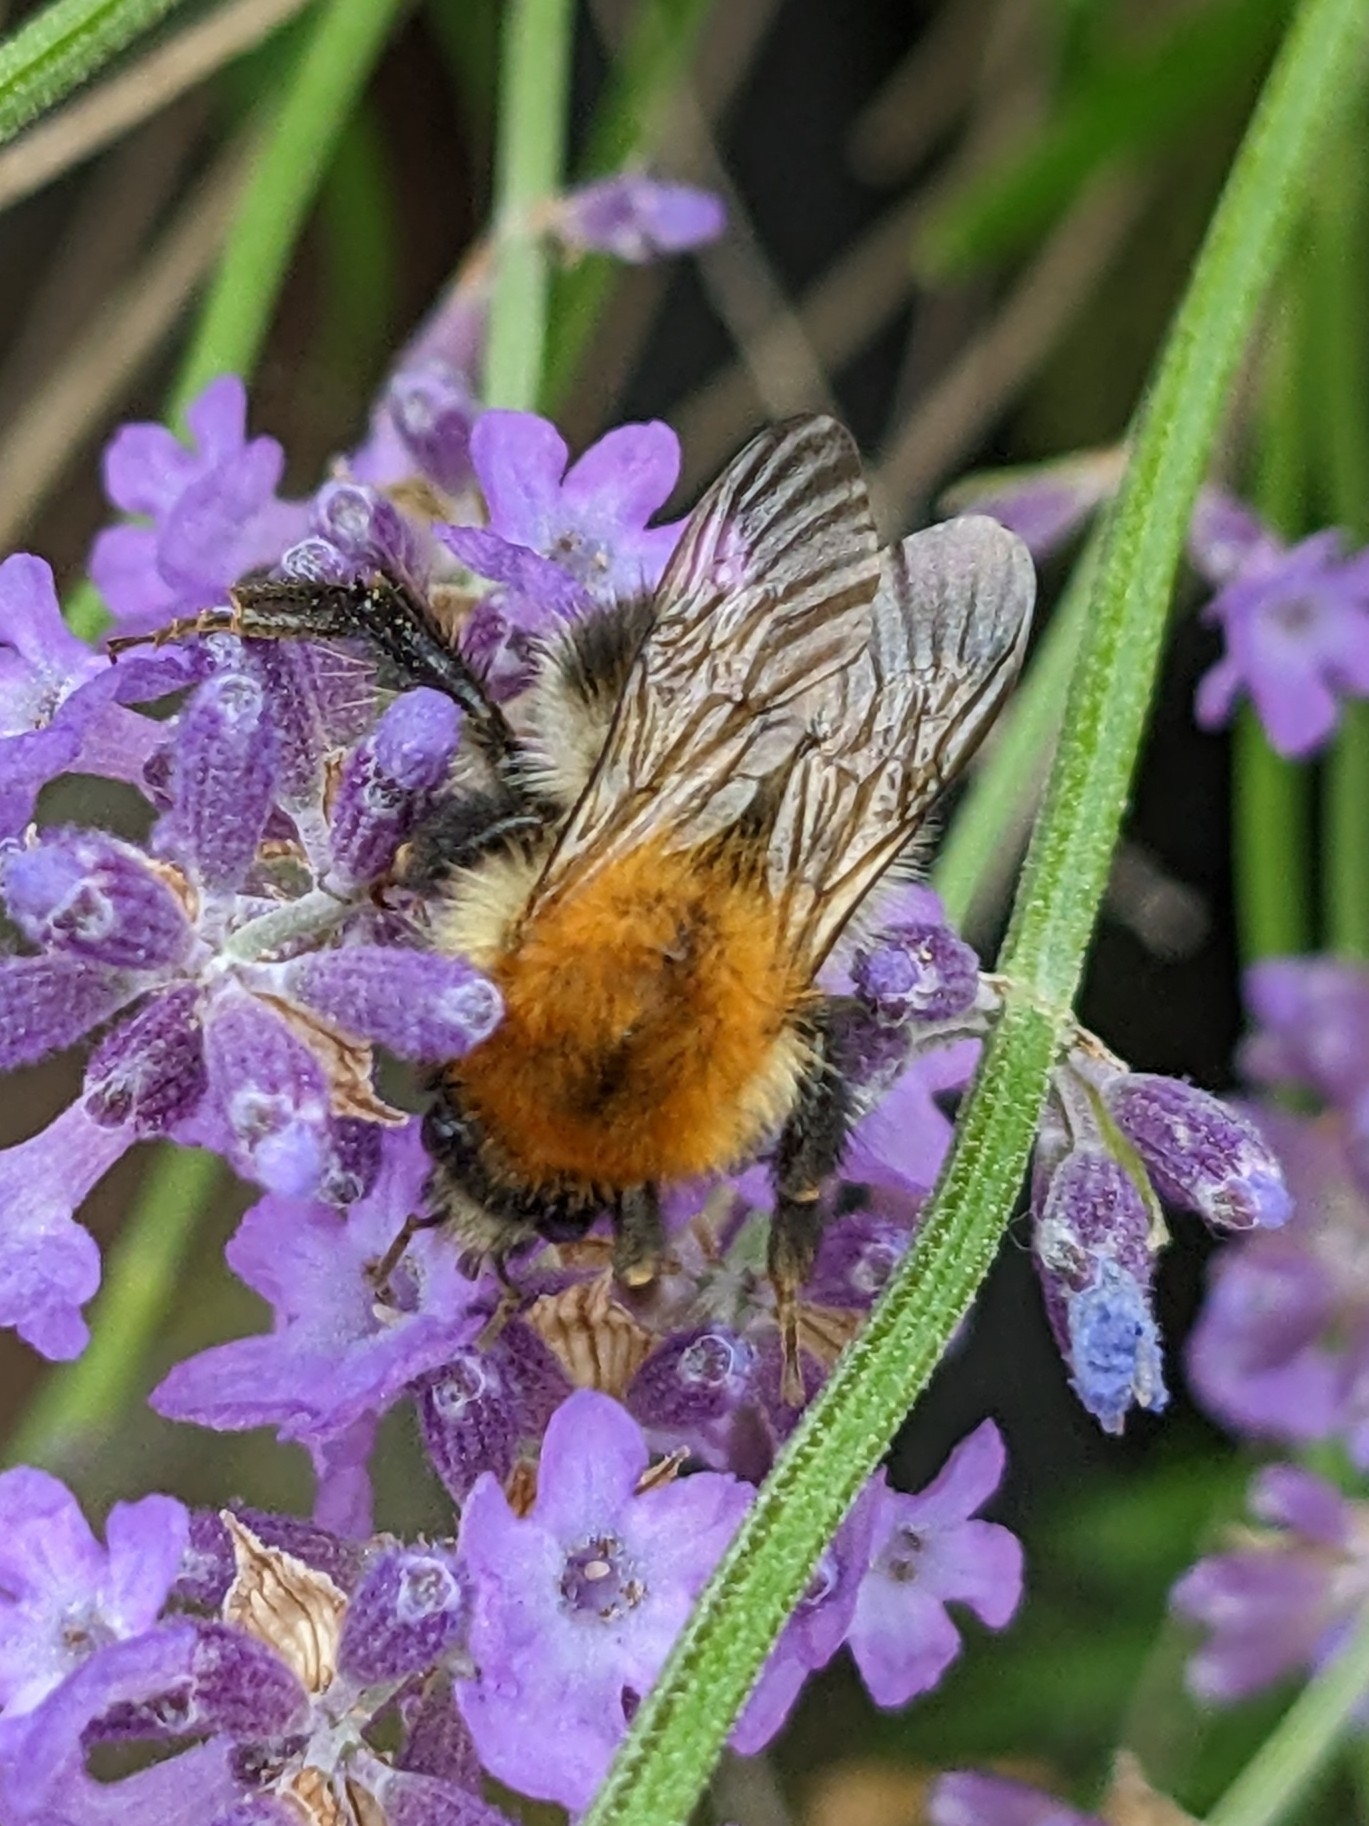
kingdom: Animalia
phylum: Arthropoda
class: Insecta
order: Hymenoptera
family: Apidae
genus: Bombus
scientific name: Bombus pascuorum
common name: Common carder bee
